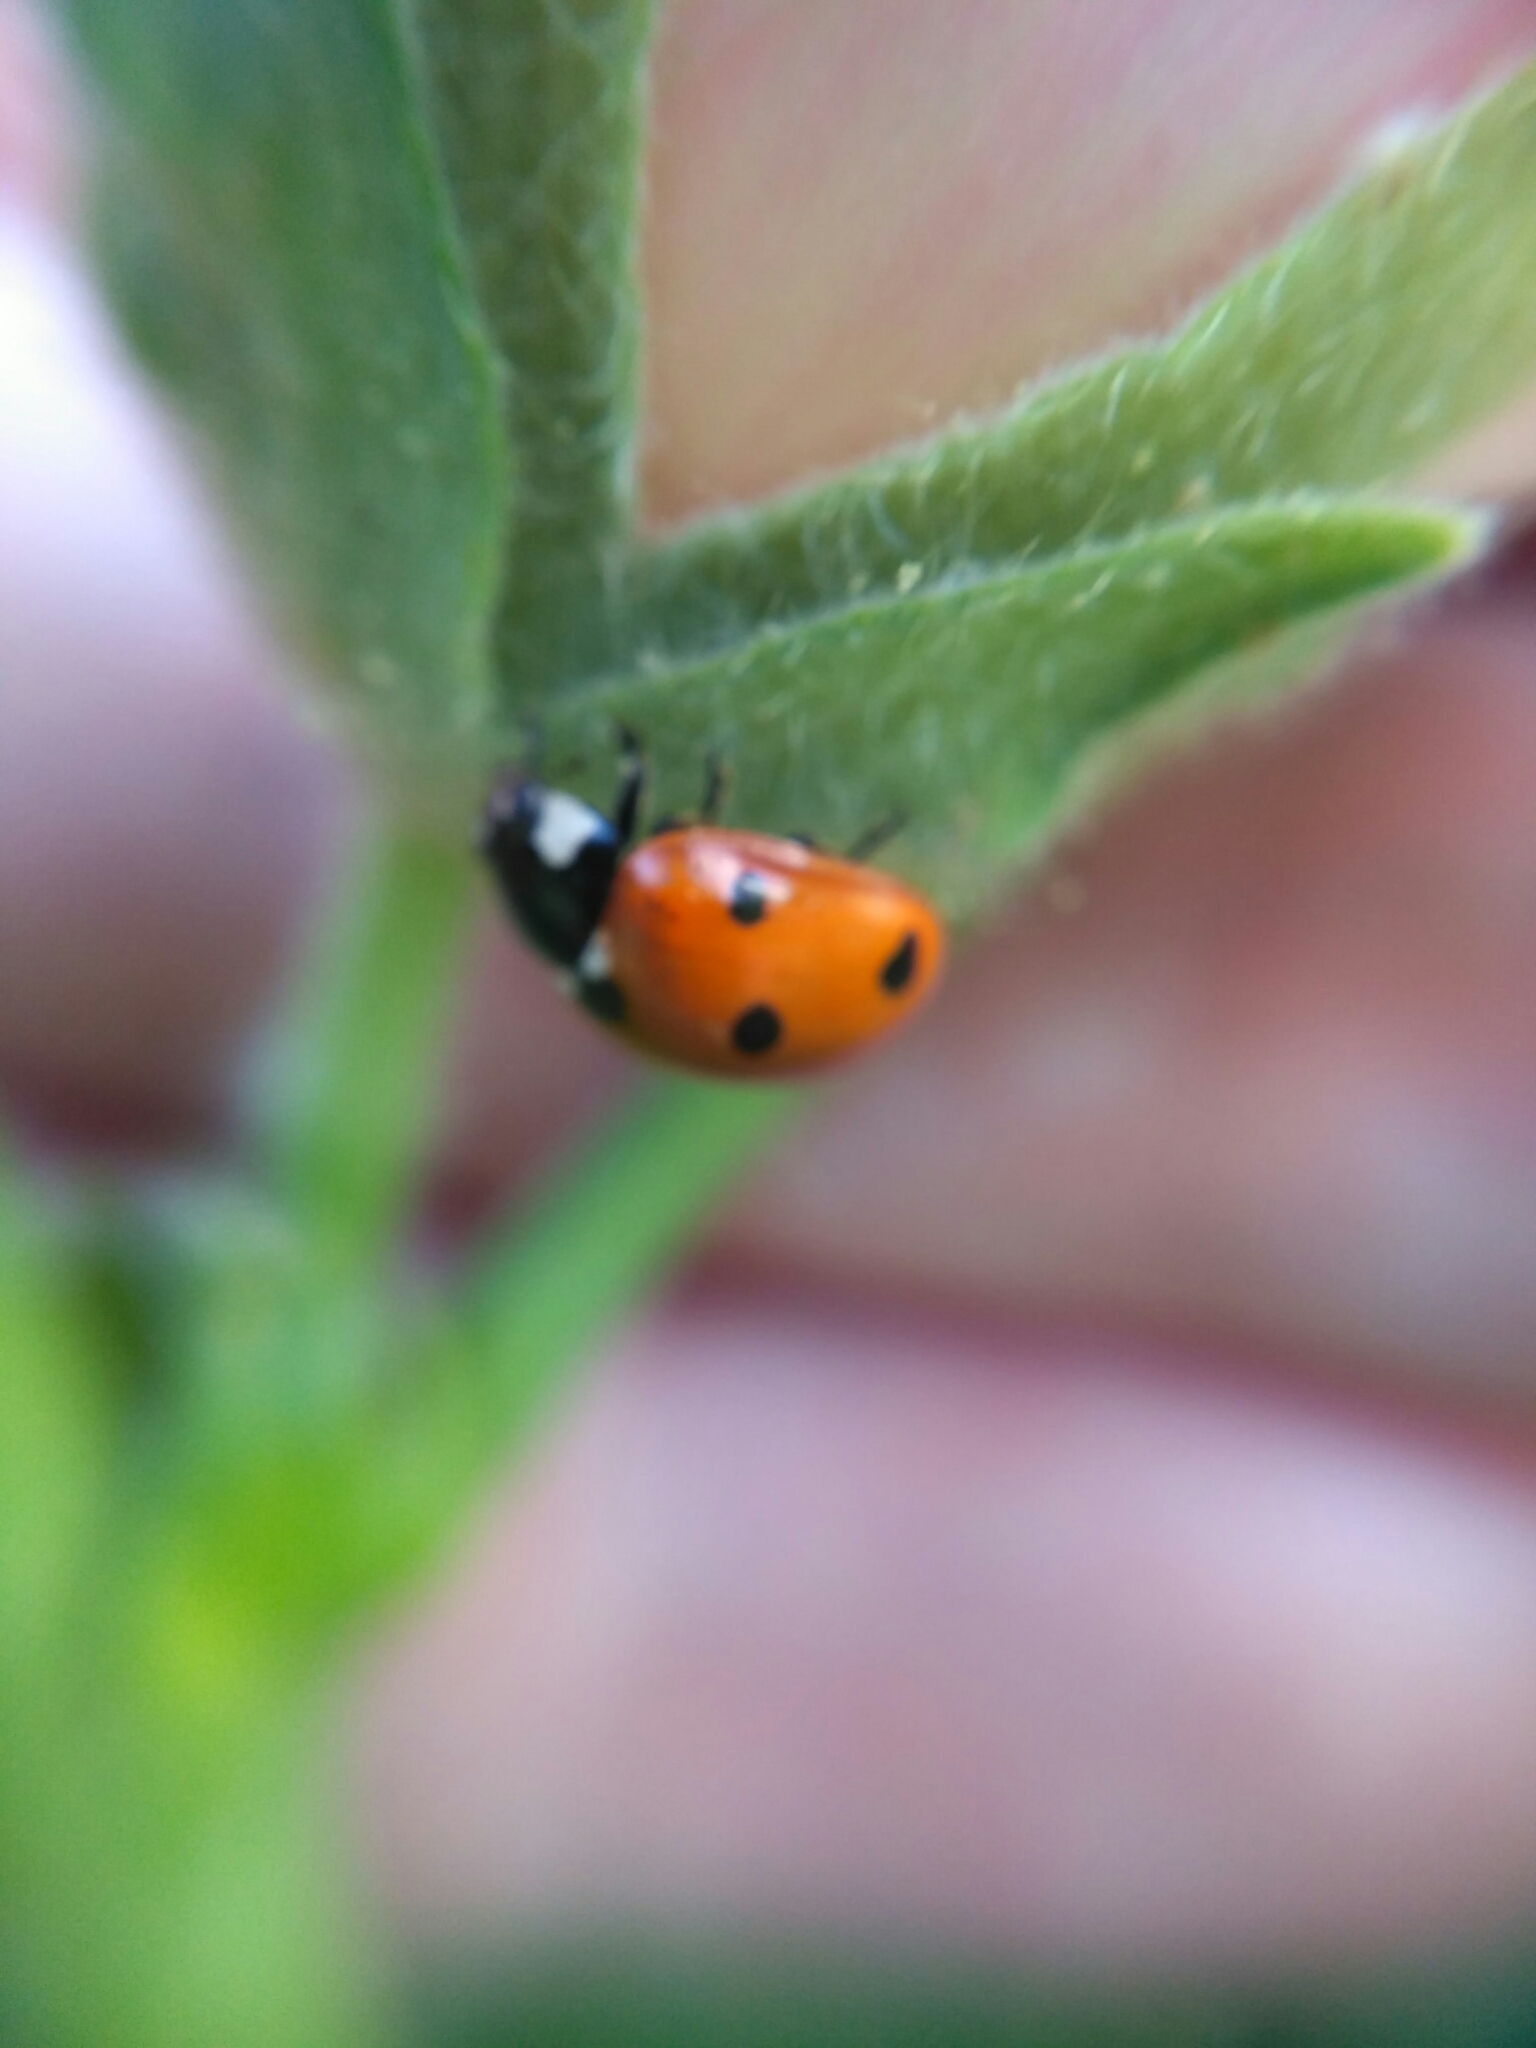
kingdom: Animalia
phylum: Arthropoda
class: Insecta
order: Coleoptera
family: Coccinellidae
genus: Coccinella
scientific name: Coccinella septempunctata
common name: Sevenspotted lady beetle
